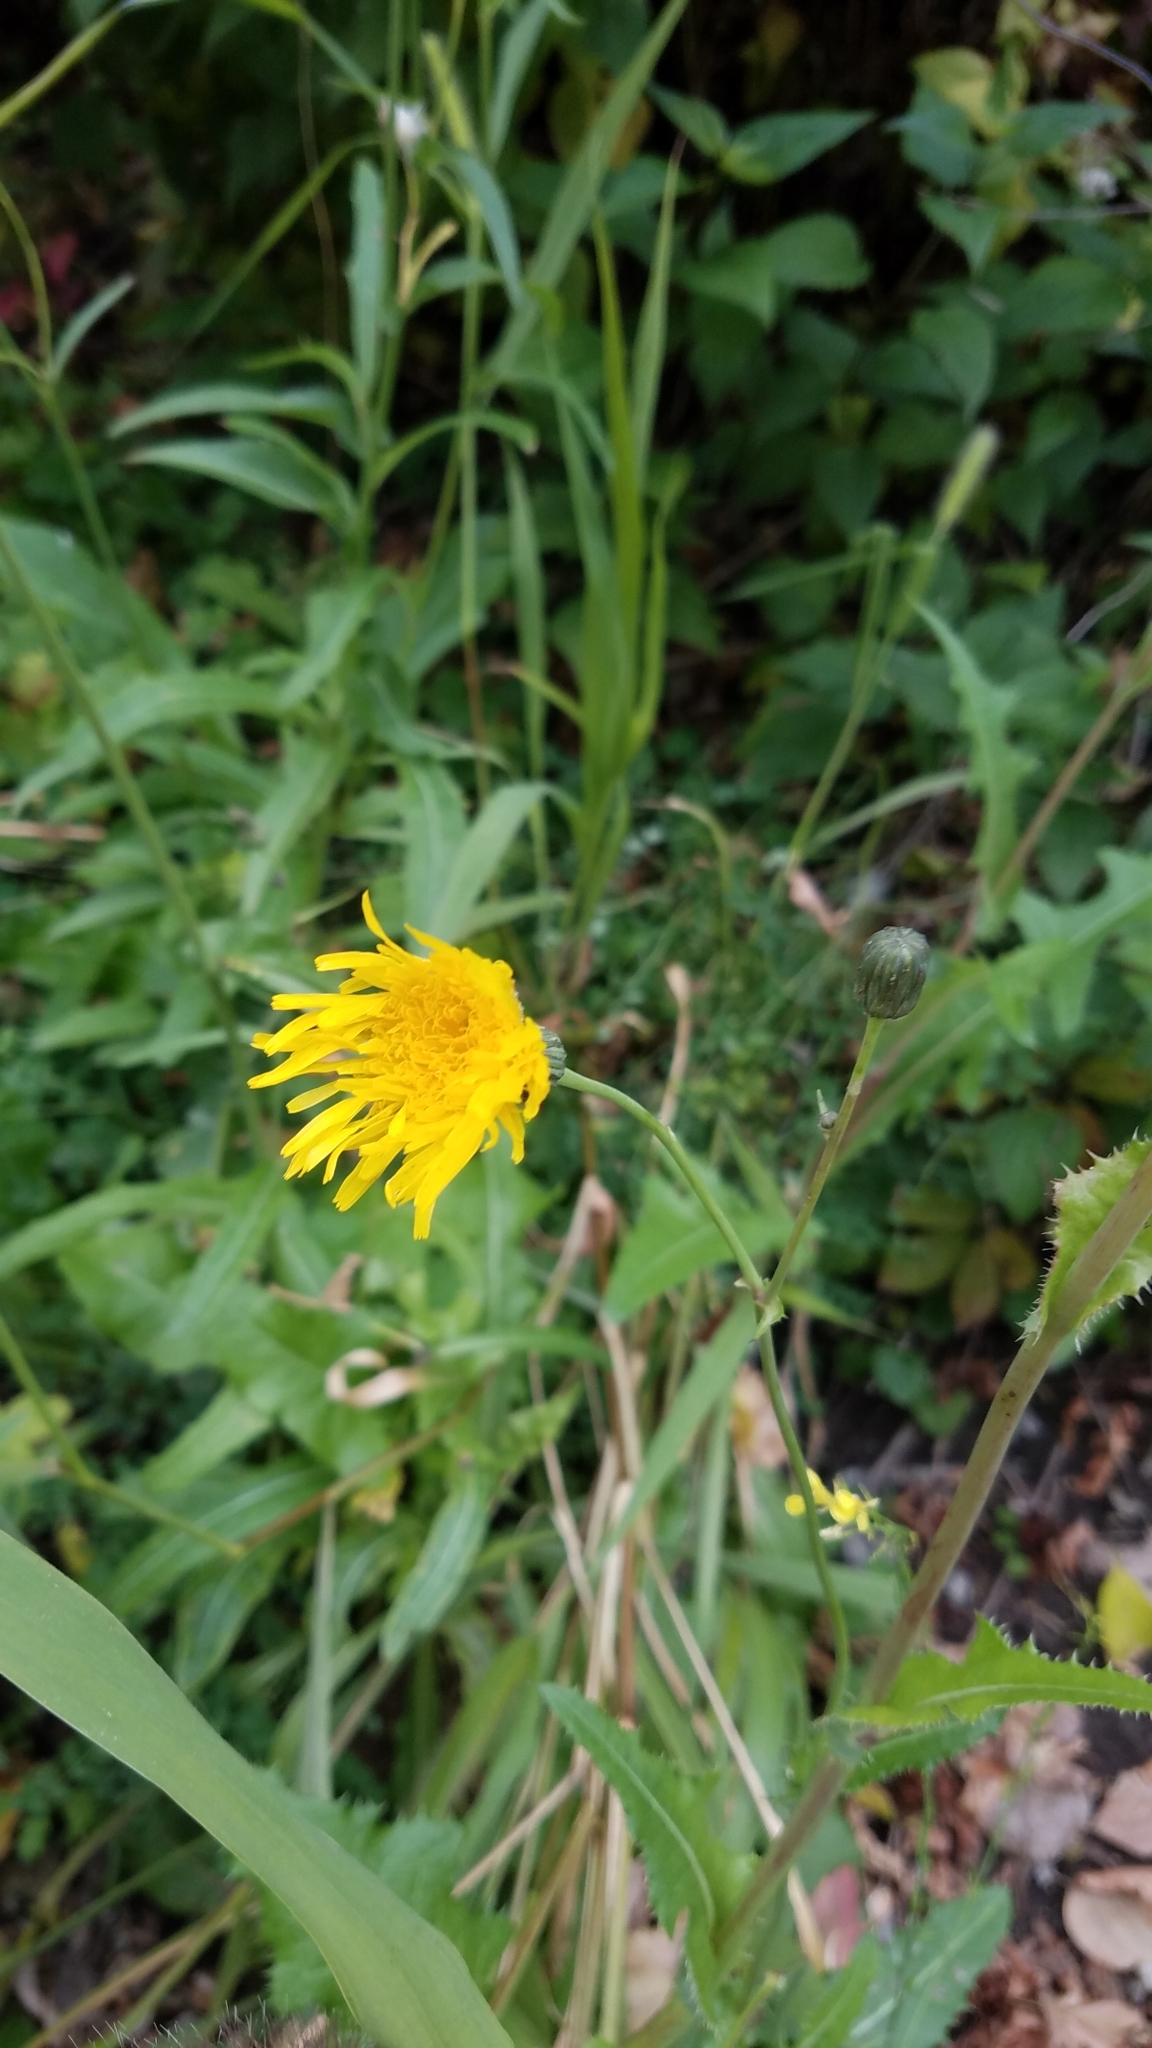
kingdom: Plantae
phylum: Tracheophyta
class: Magnoliopsida
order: Asterales
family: Asteraceae
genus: Sonchus
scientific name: Sonchus arvensis
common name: Perennial sow-thistle
